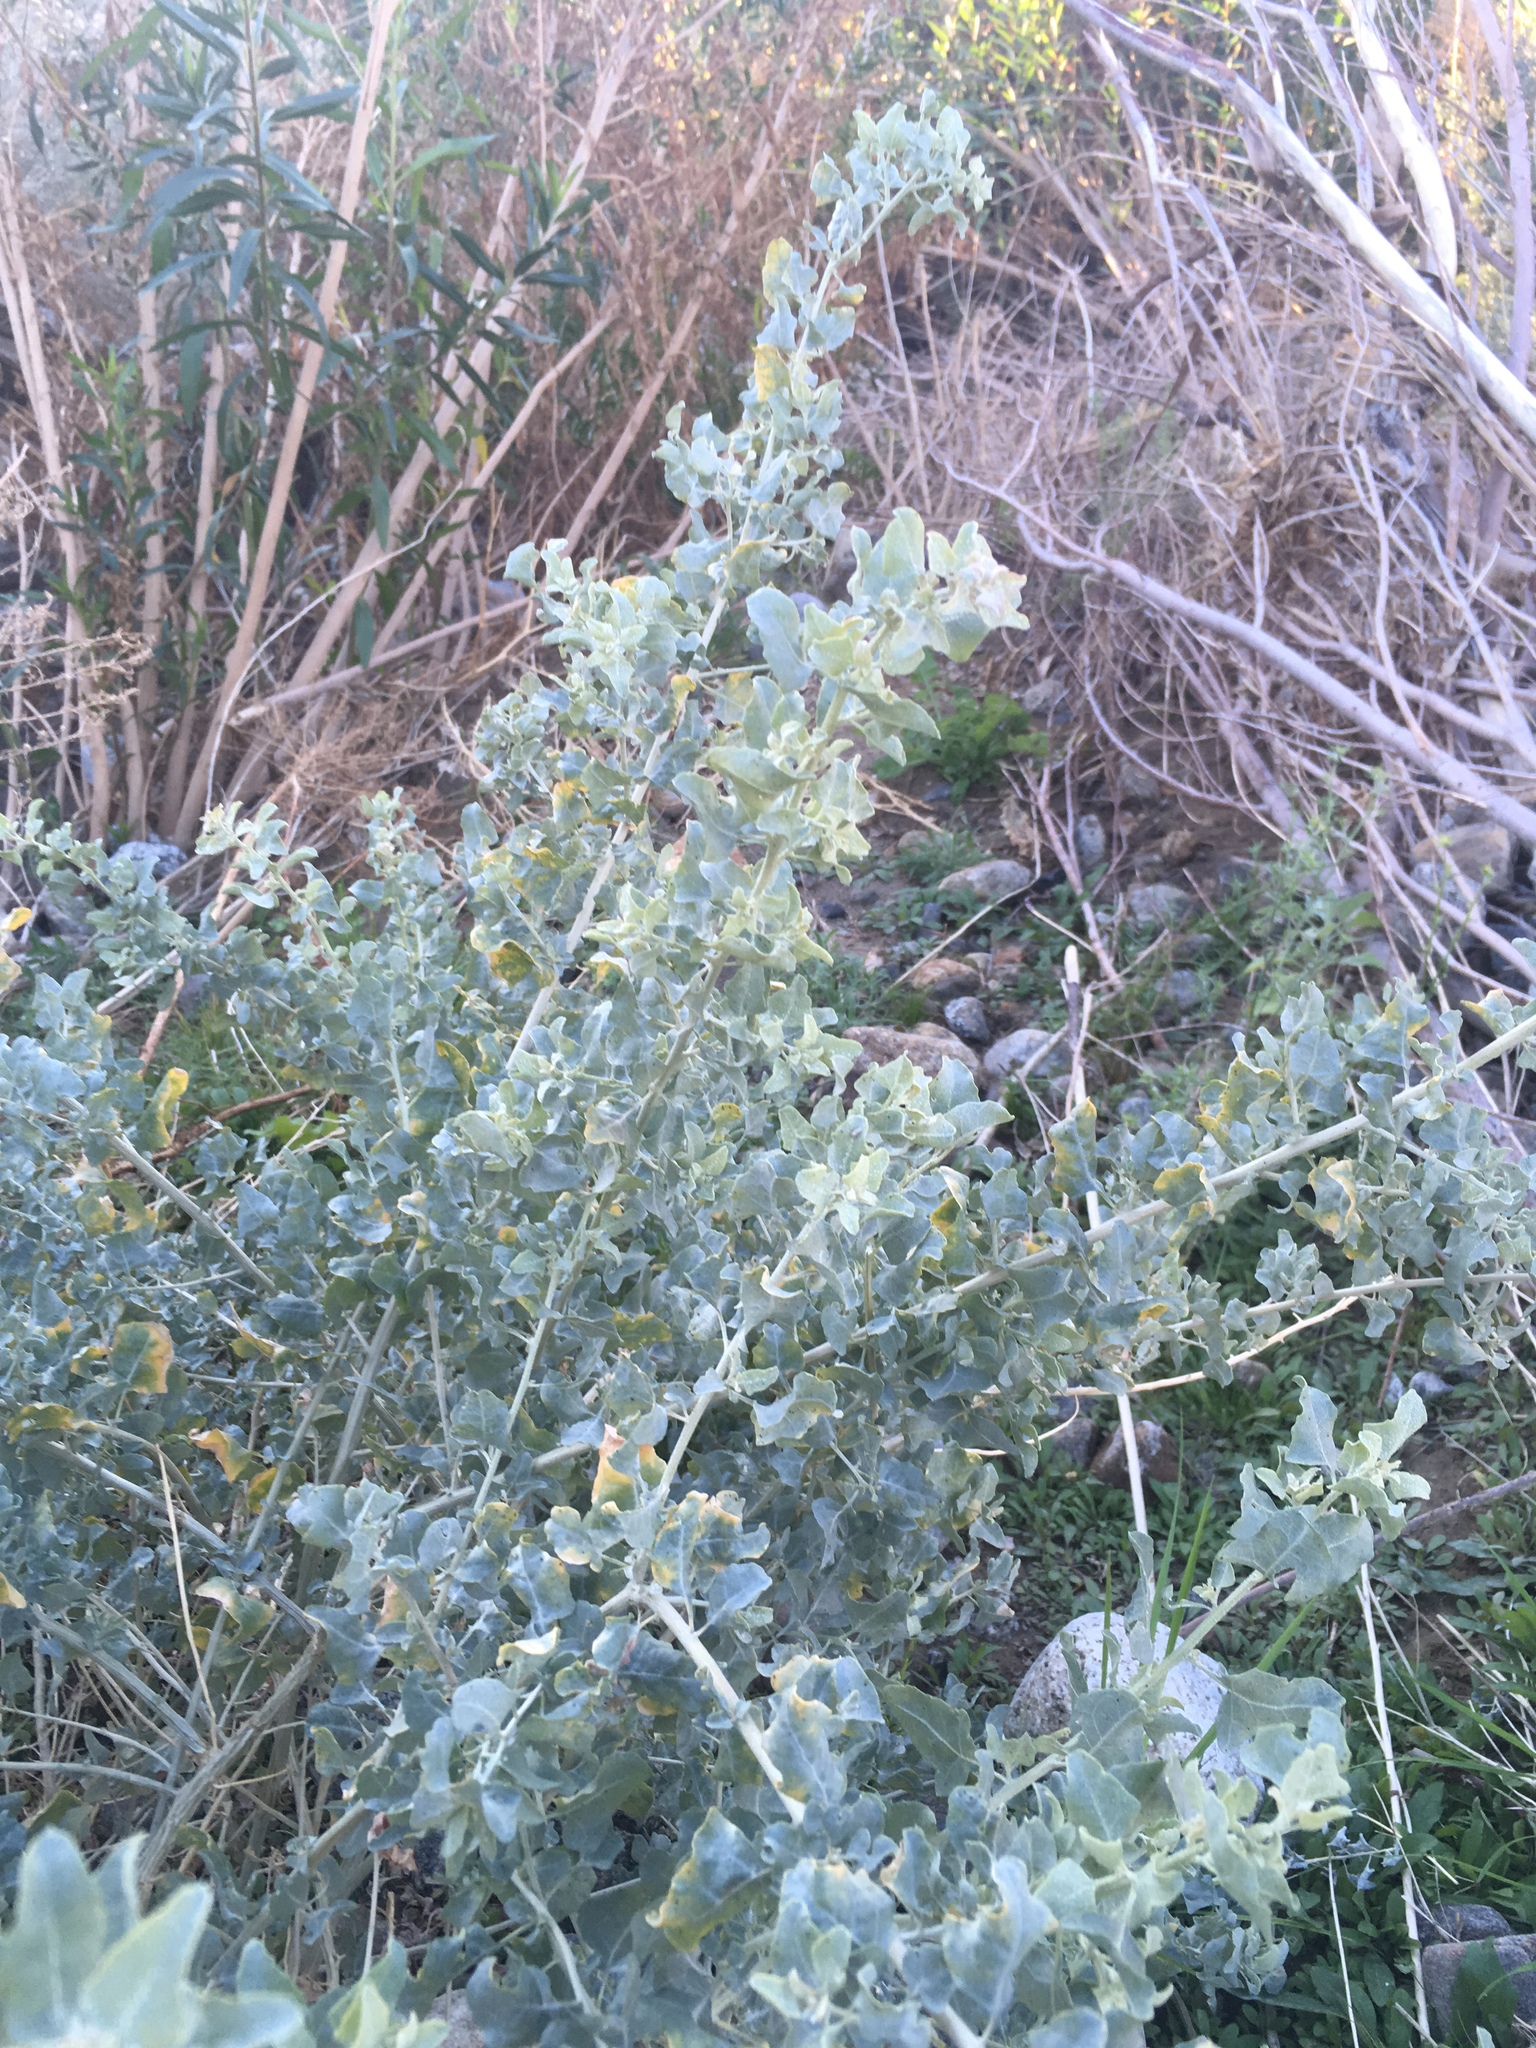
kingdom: Plantae
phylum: Tracheophyta
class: Magnoliopsida
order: Caryophyllales
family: Amaranthaceae
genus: Atriplex
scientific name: Atriplex lentiformis
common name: Big saltbush
